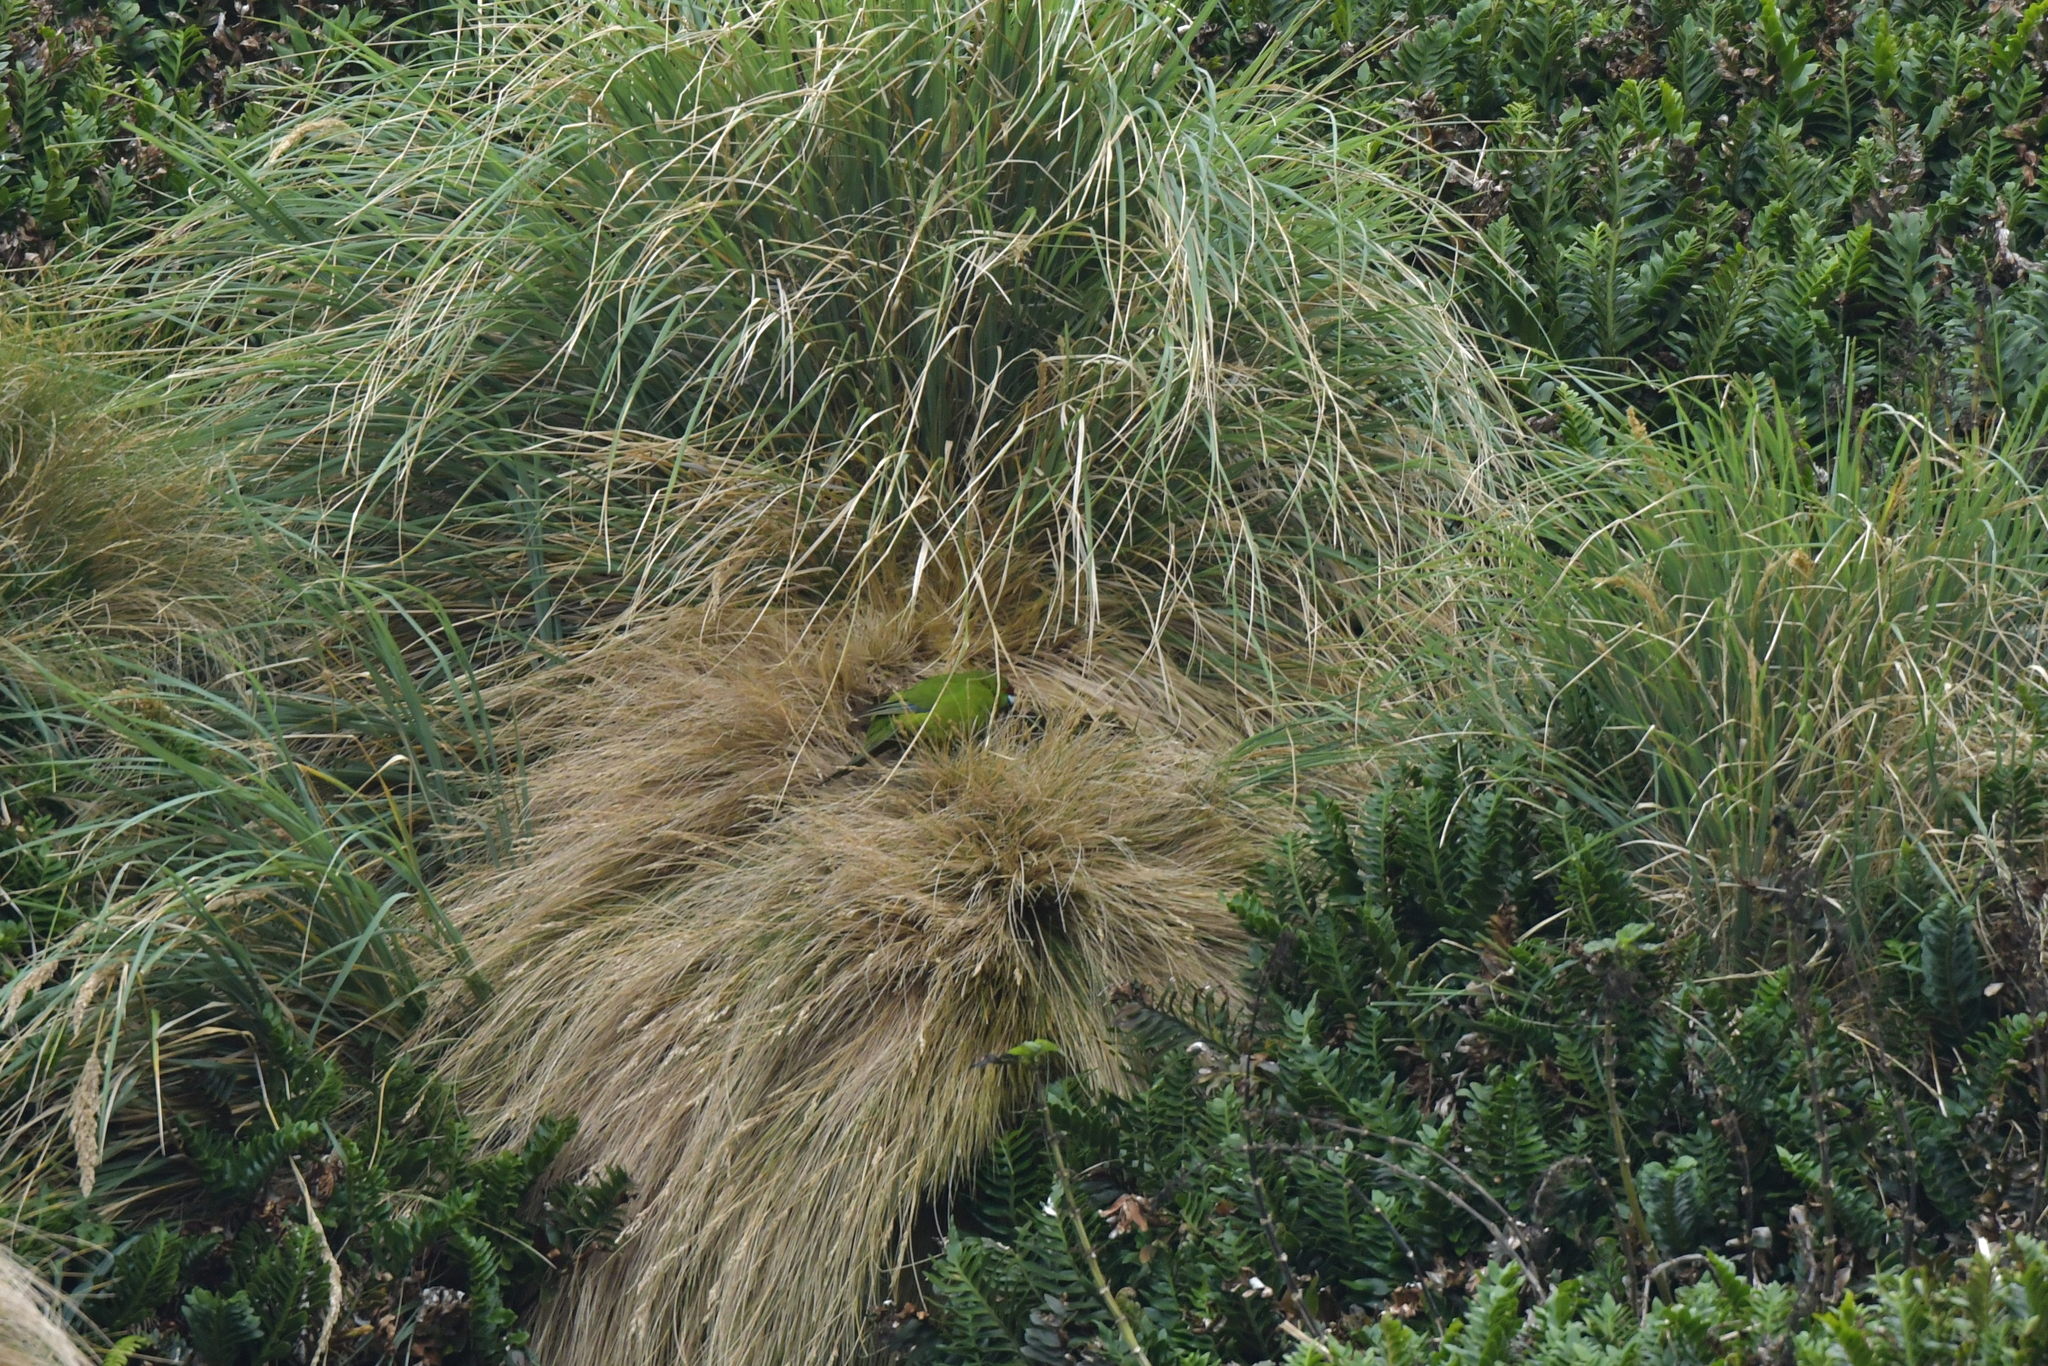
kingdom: Animalia
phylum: Chordata
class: Aves
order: Psittaciformes
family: Psittacidae
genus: Cyanoramphus
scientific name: Cyanoramphus novaezelandiae
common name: Red-fronted parakeet
